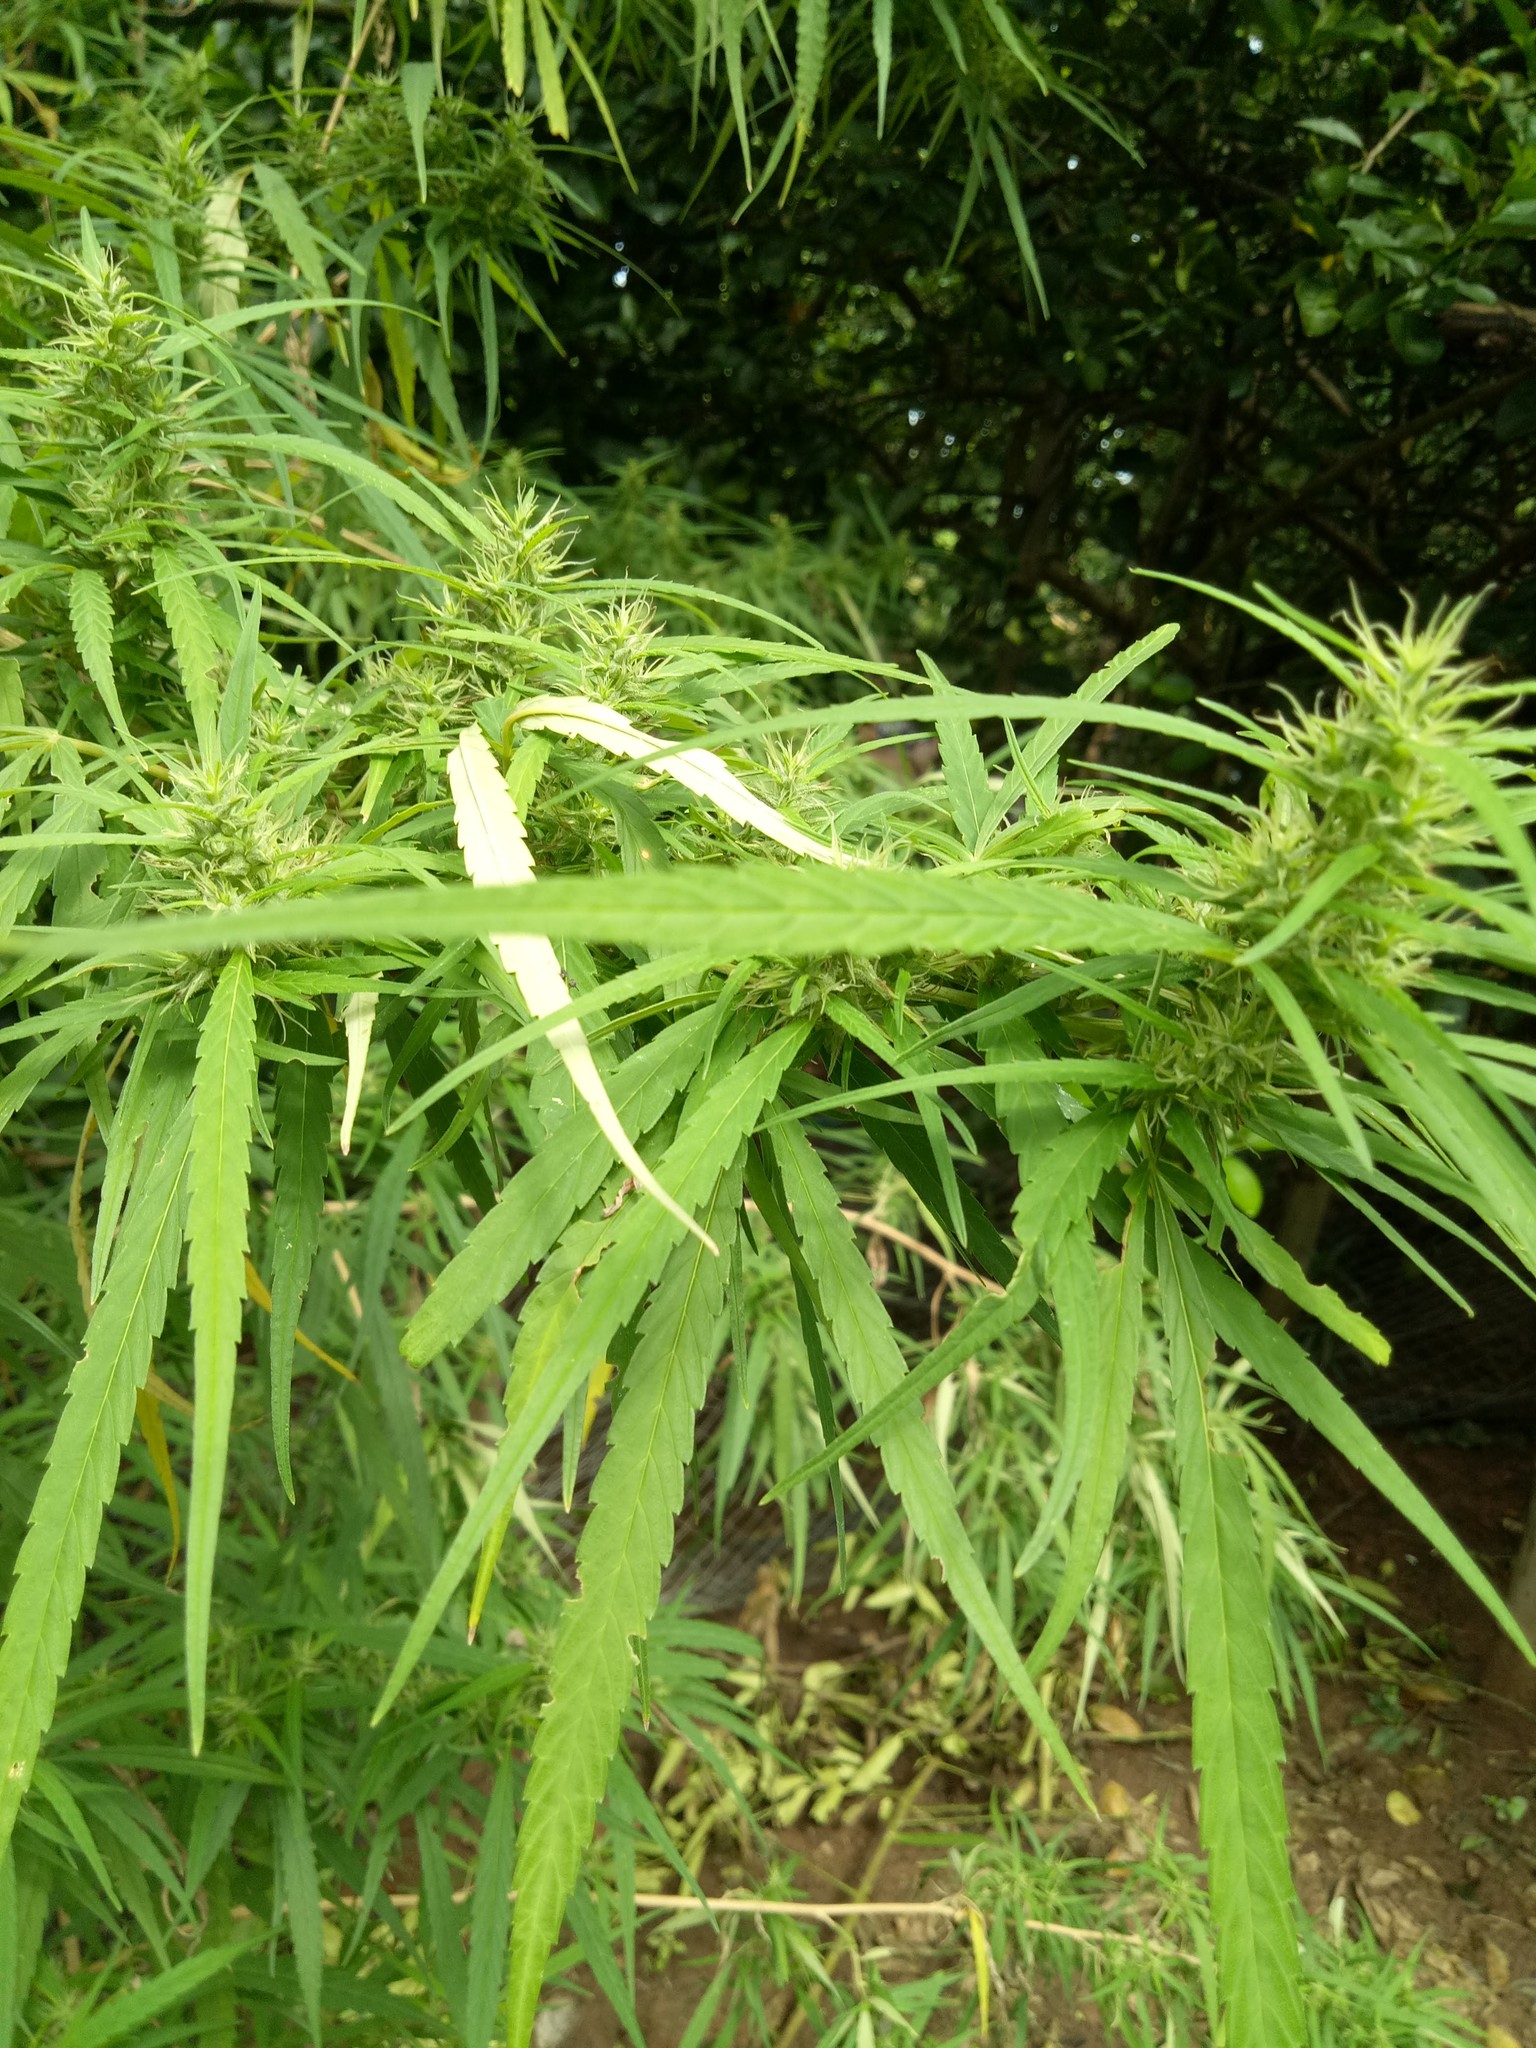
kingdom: Plantae
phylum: Tracheophyta
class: Magnoliopsida
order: Rosales
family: Cannabaceae
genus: Cannabis
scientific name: Cannabis sativa
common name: Hemp
